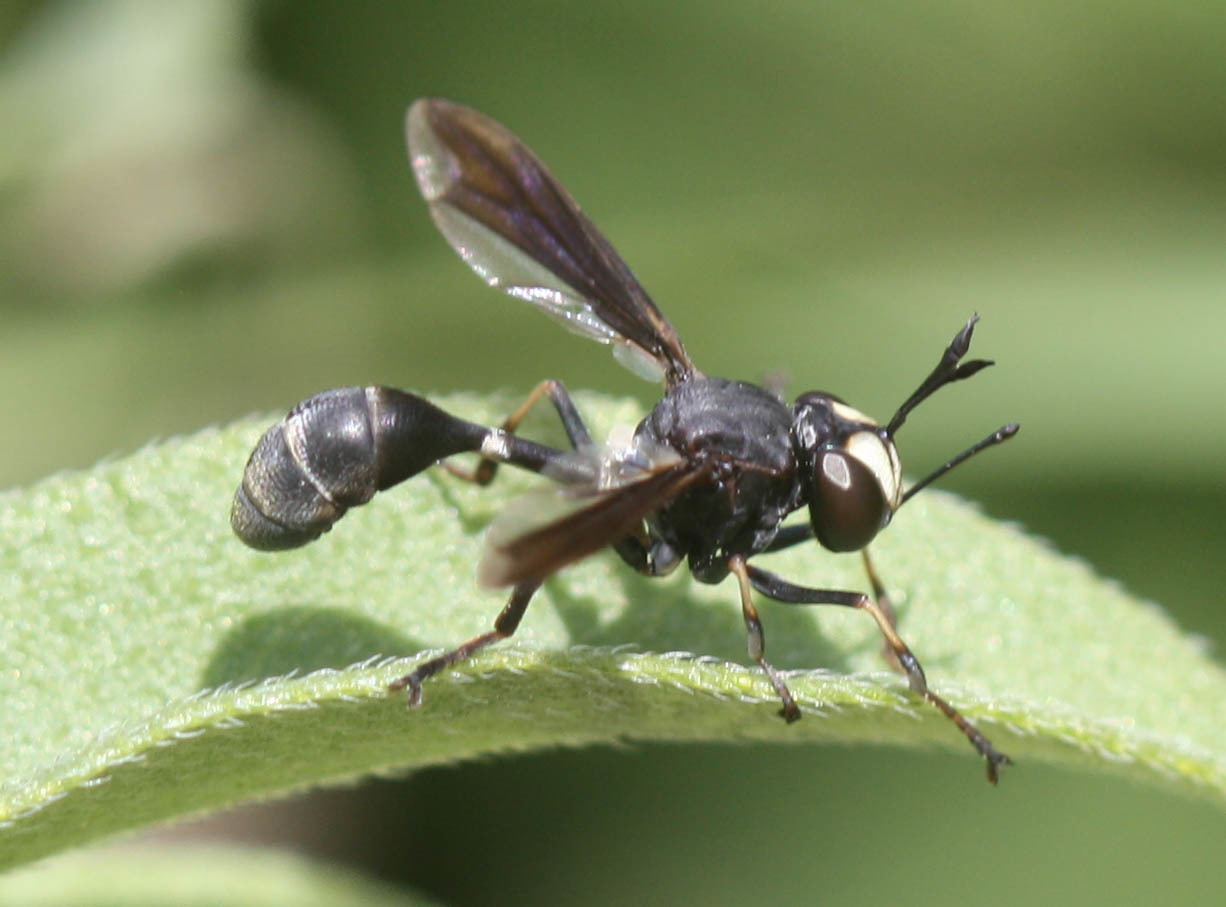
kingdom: Animalia
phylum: Arthropoda
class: Insecta
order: Diptera
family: Conopidae
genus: Physocephala
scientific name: Physocephala tibialis
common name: Common eastern physocephala
